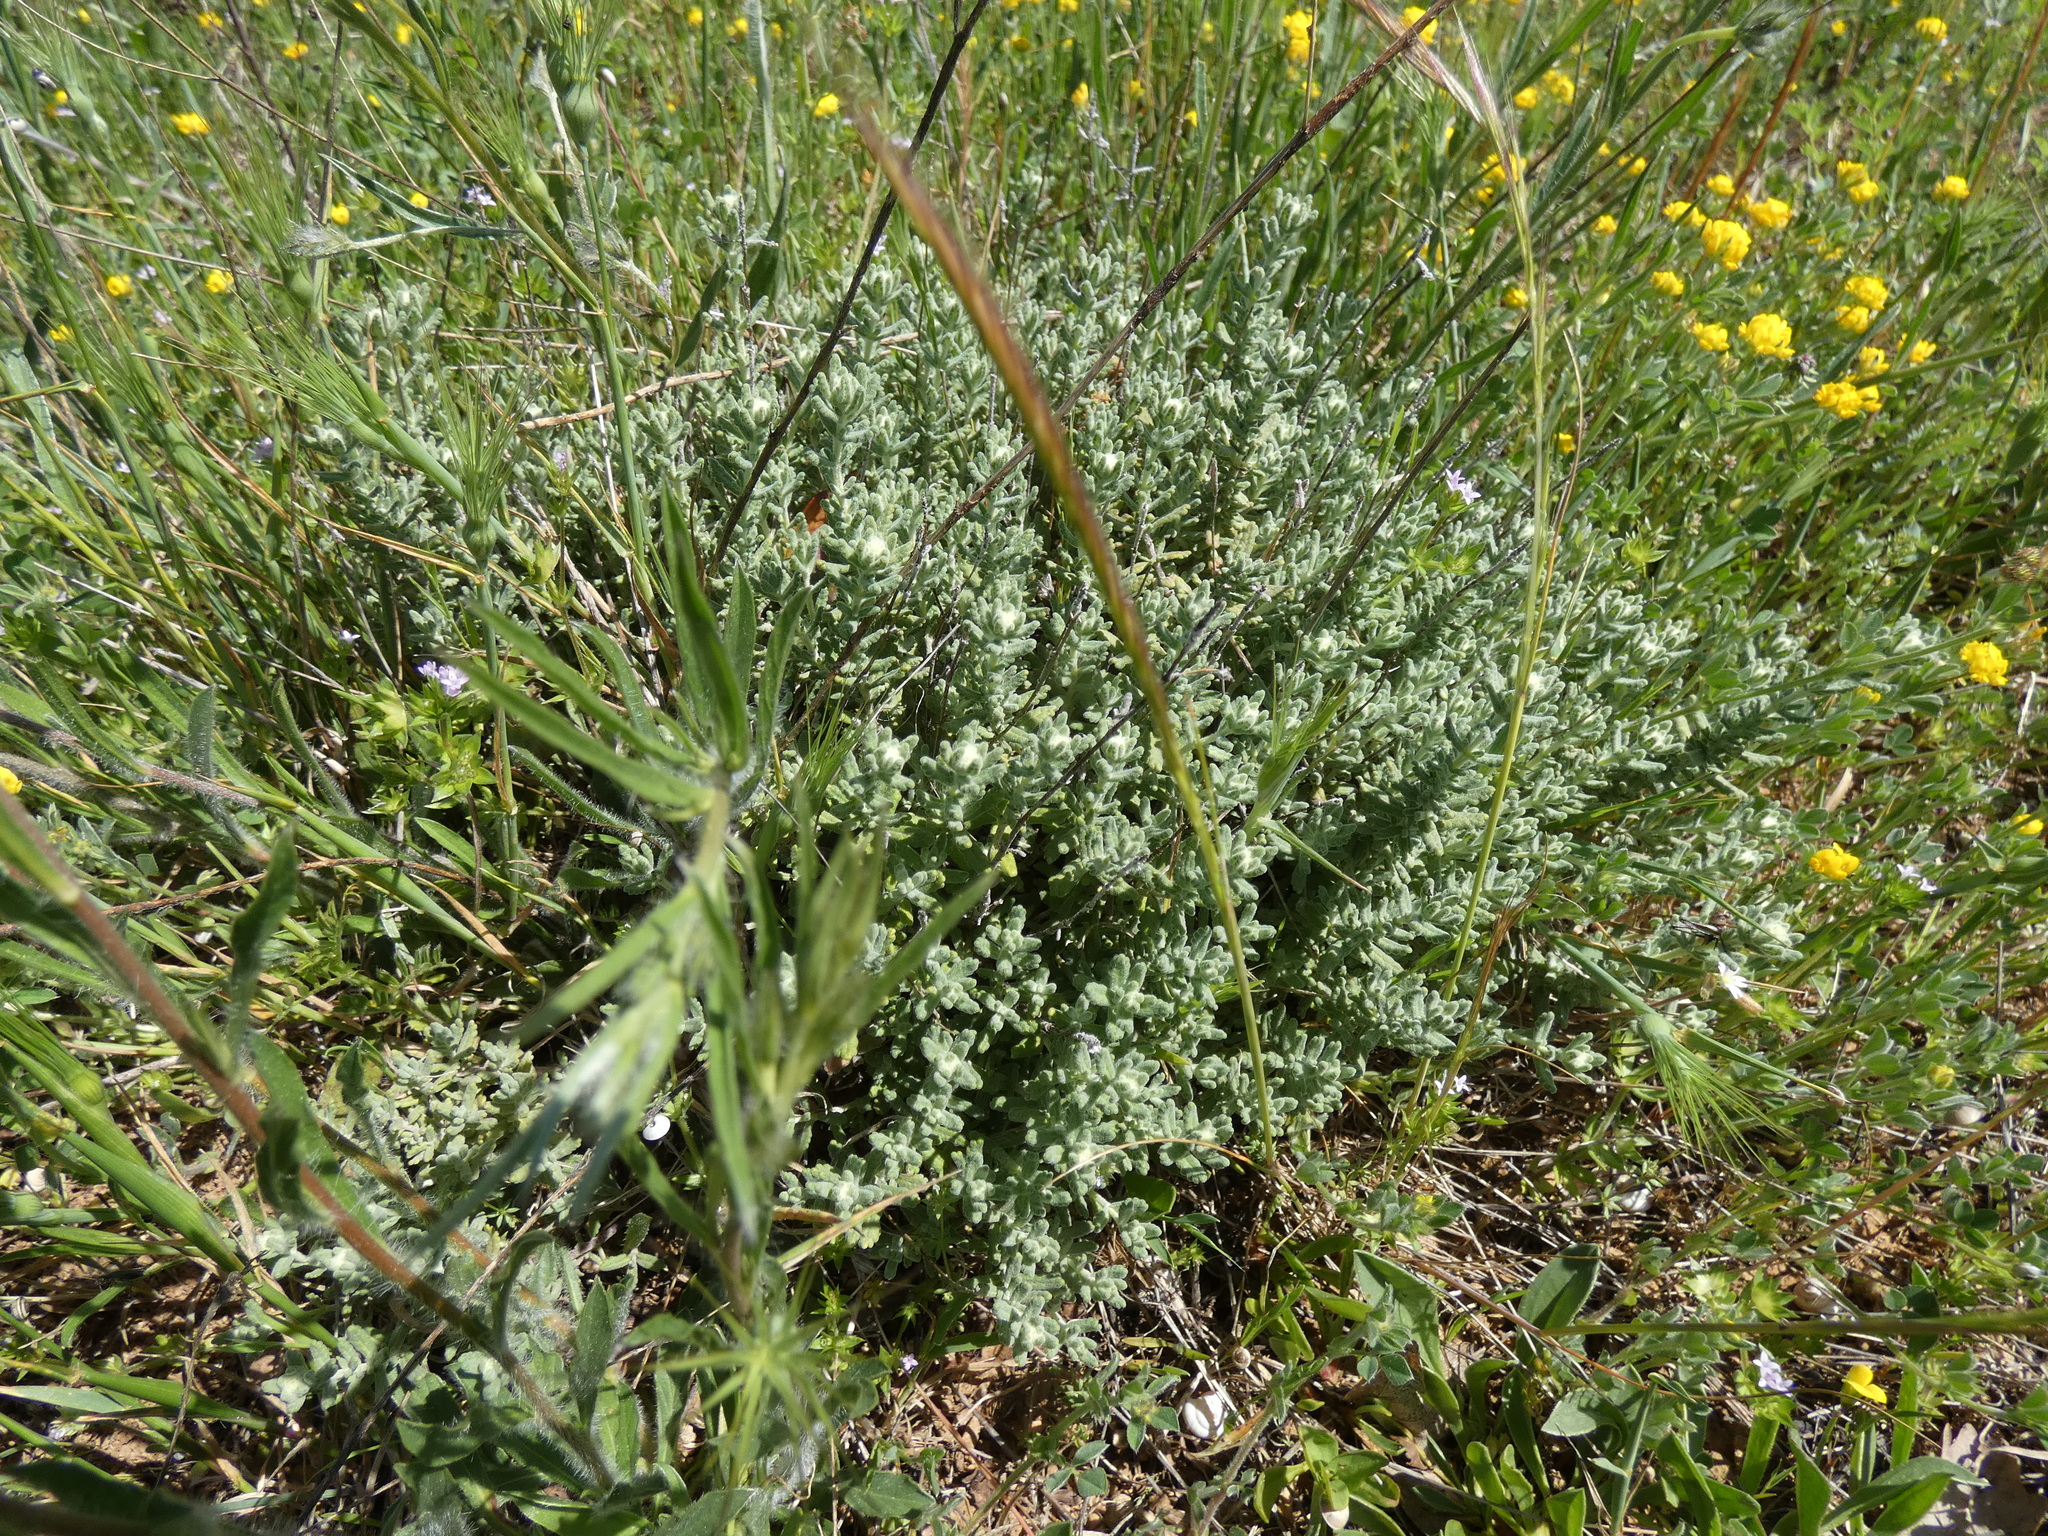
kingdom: Plantae
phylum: Tracheophyta
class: Magnoliopsida
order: Lamiales
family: Lamiaceae
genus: Teucrium
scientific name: Teucrium polium
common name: Poley
